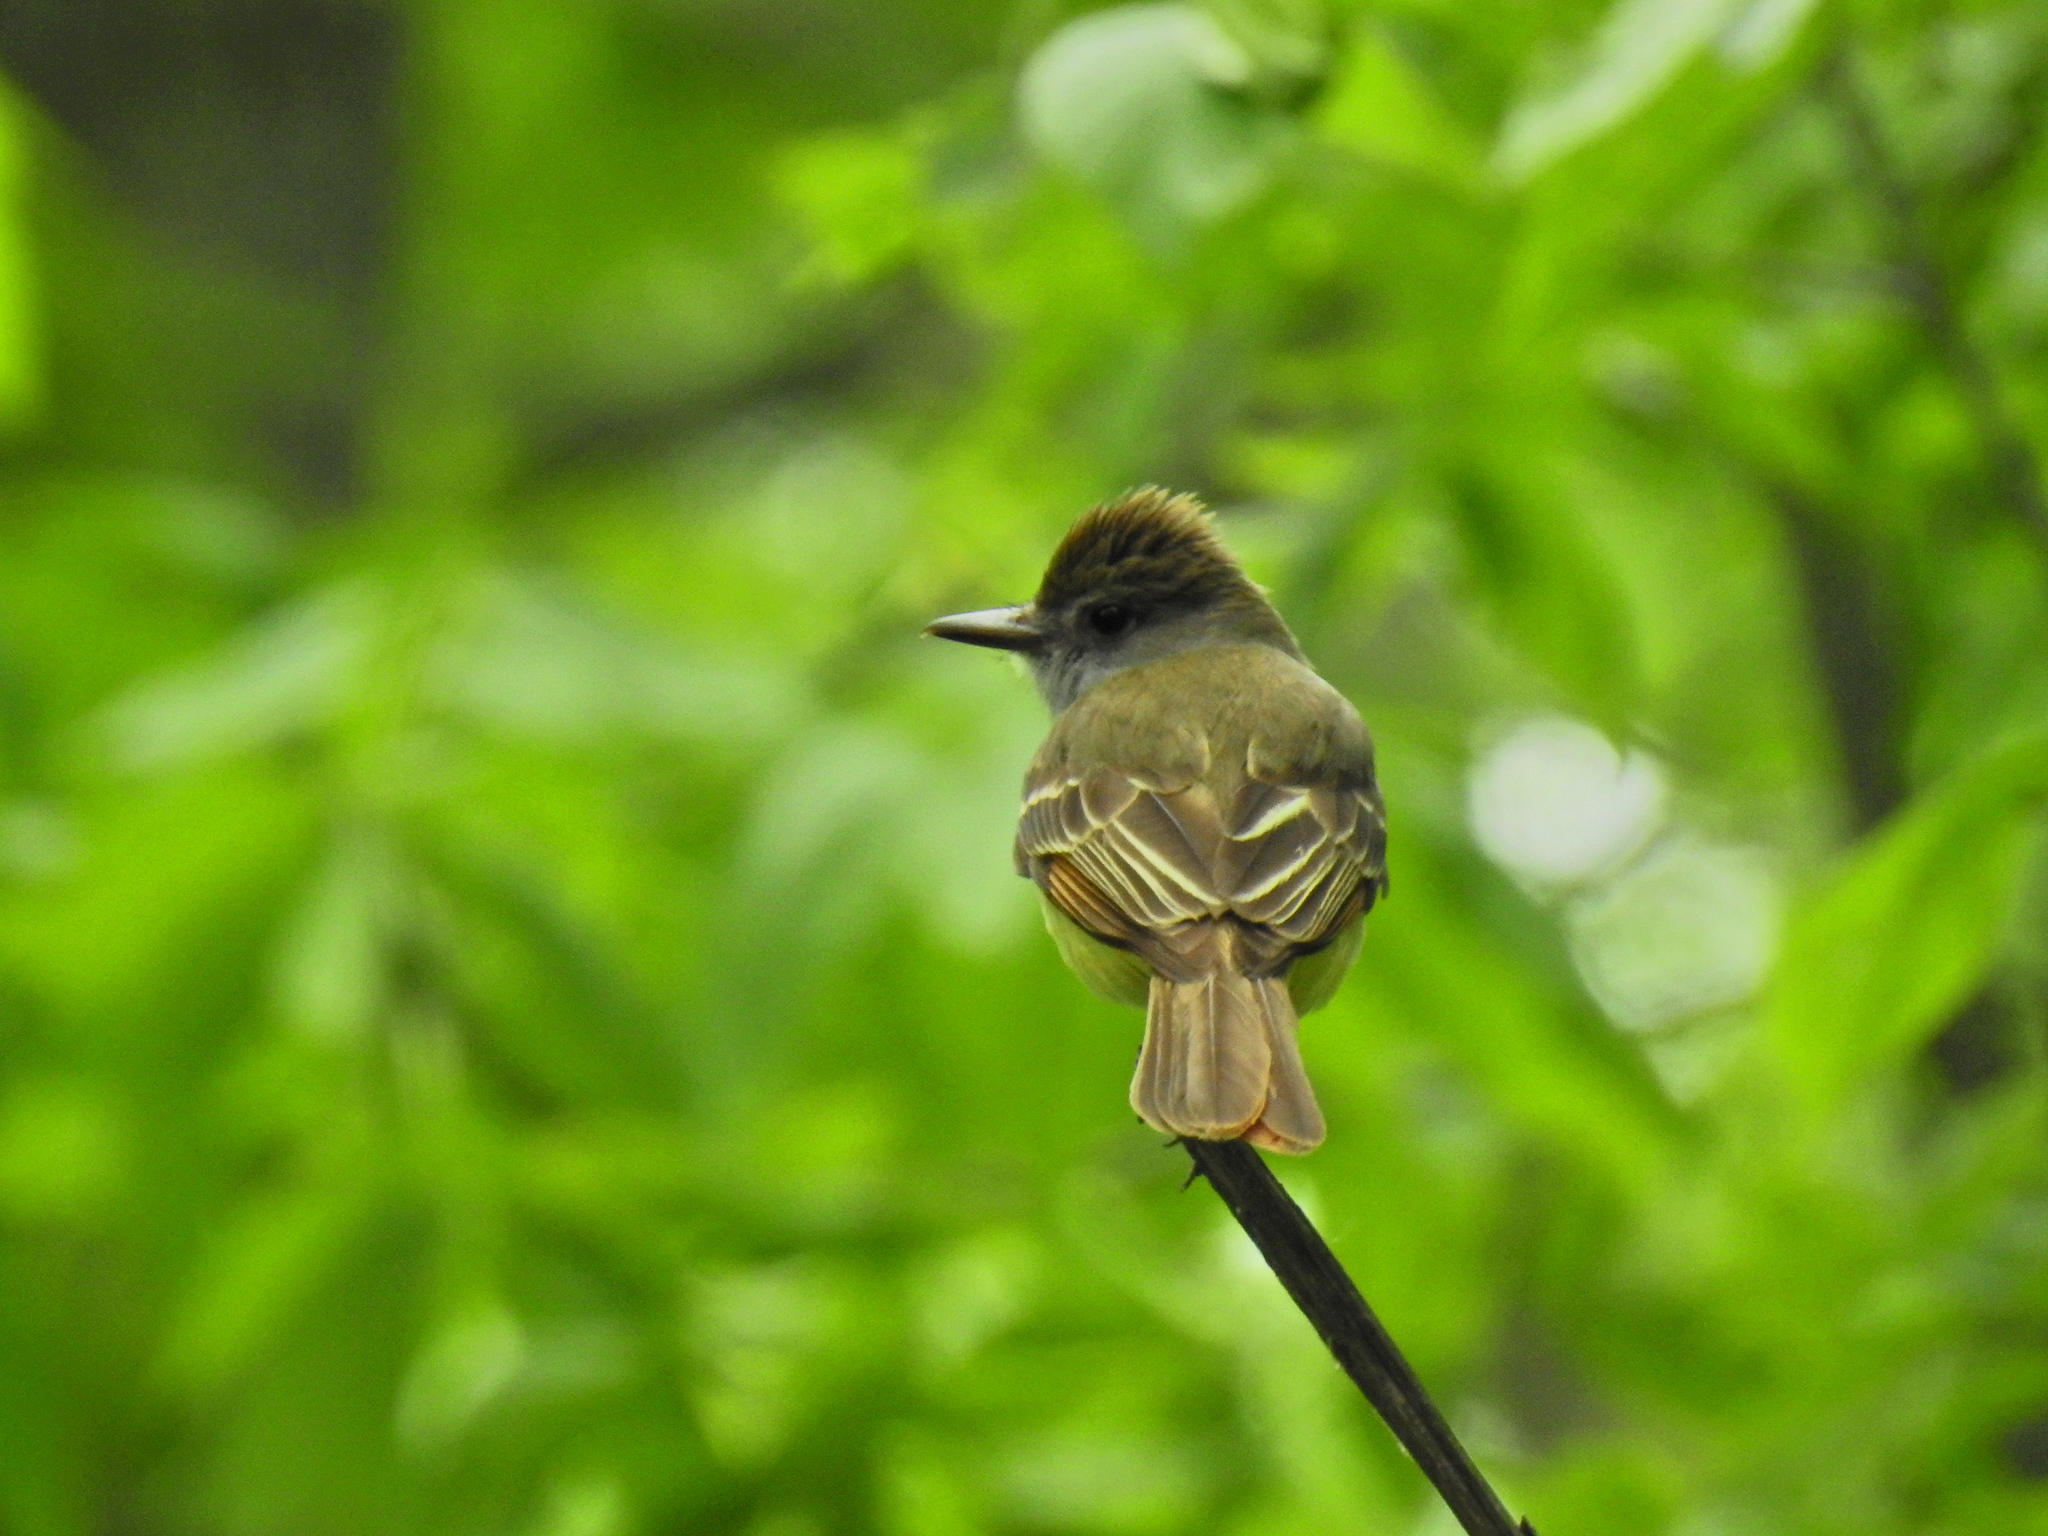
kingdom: Animalia
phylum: Chordata
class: Aves
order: Passeriformes
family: Tyrannidae
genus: Myiarchus
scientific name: Myiarchus crinitus
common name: Great crested flycatcher
